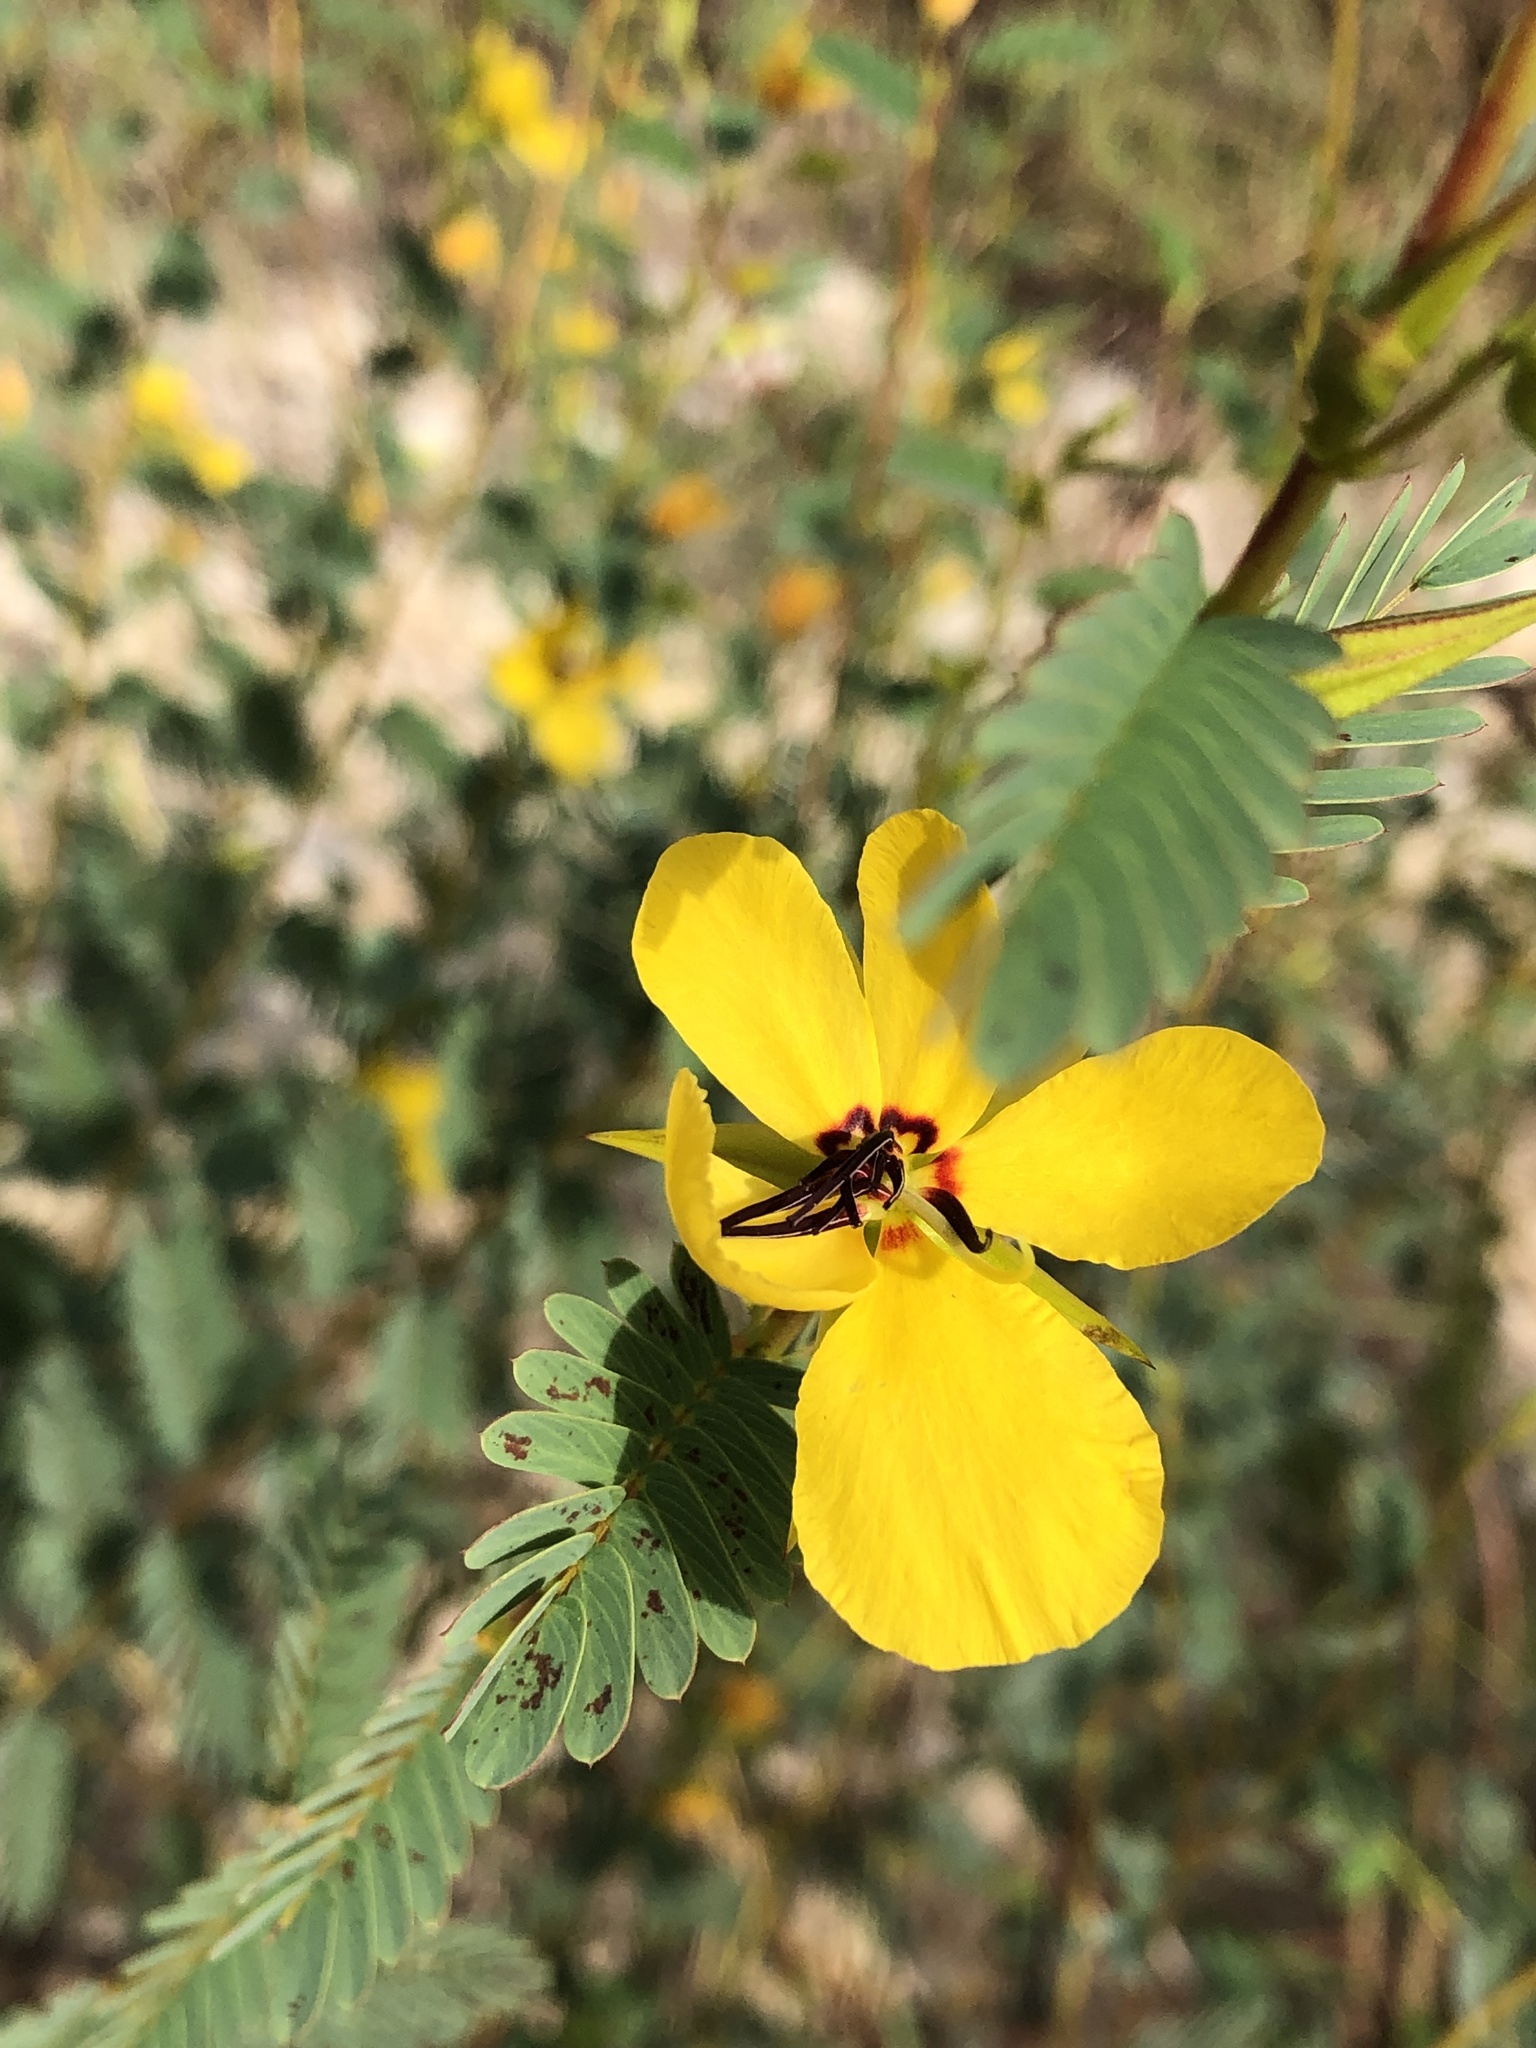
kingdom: Plantae
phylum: Tracheophyta
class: Magnoliopsida
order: Fabales
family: Fabaceae
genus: Chamaecrista
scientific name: Chamaecrista fasciculata
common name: Golden cassia
